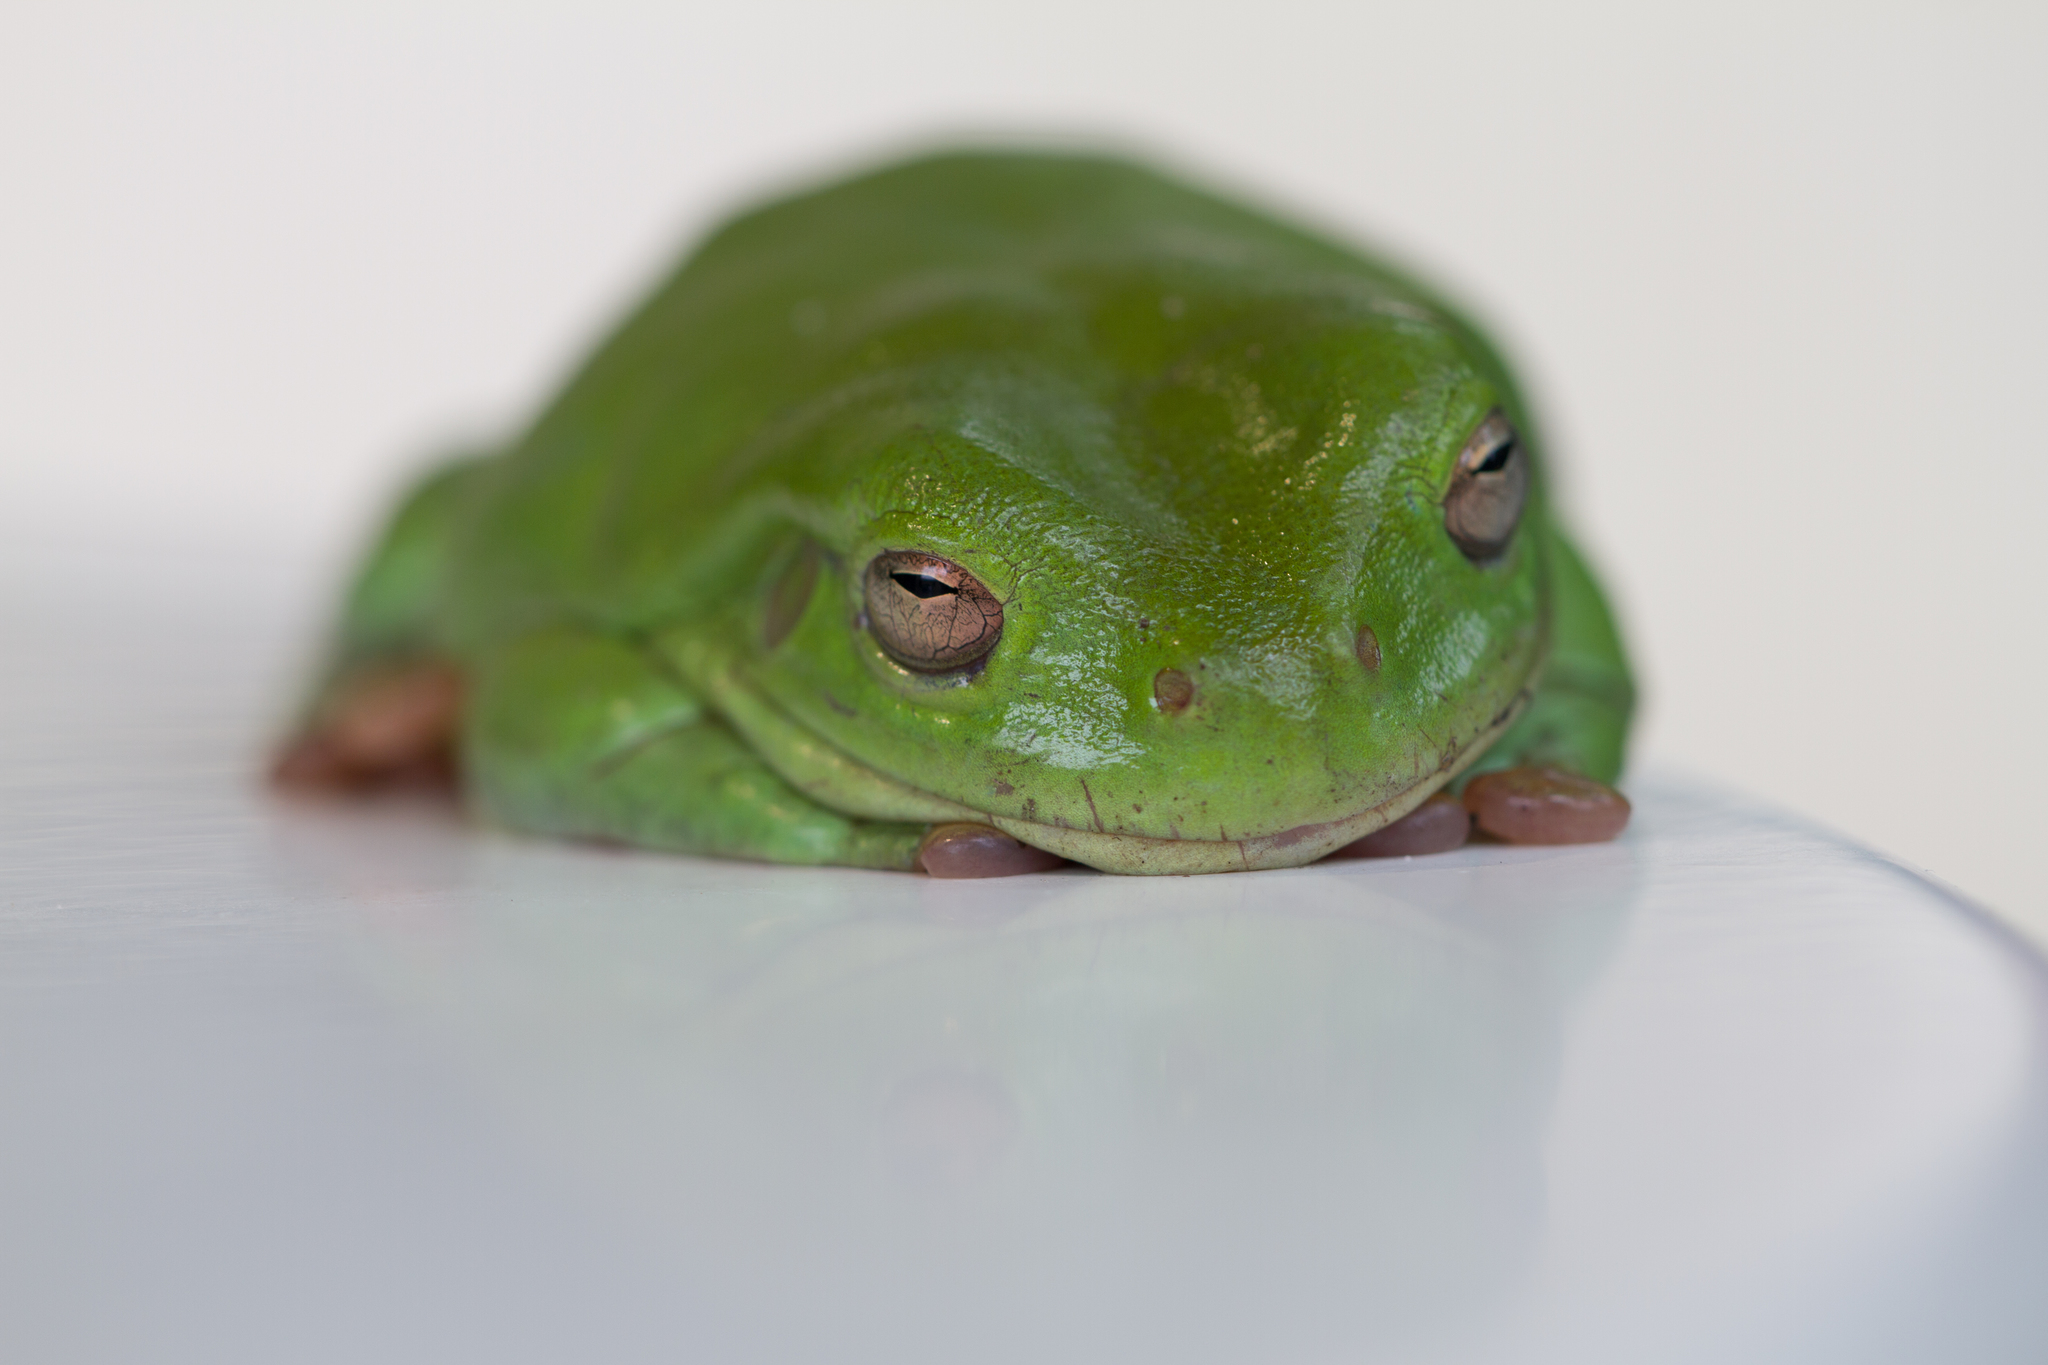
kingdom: Animalia
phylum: Chordata
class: Amphibia
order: Anura
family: Pelodryadidae
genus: Ranoidea
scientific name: Ranoidea caerulea
